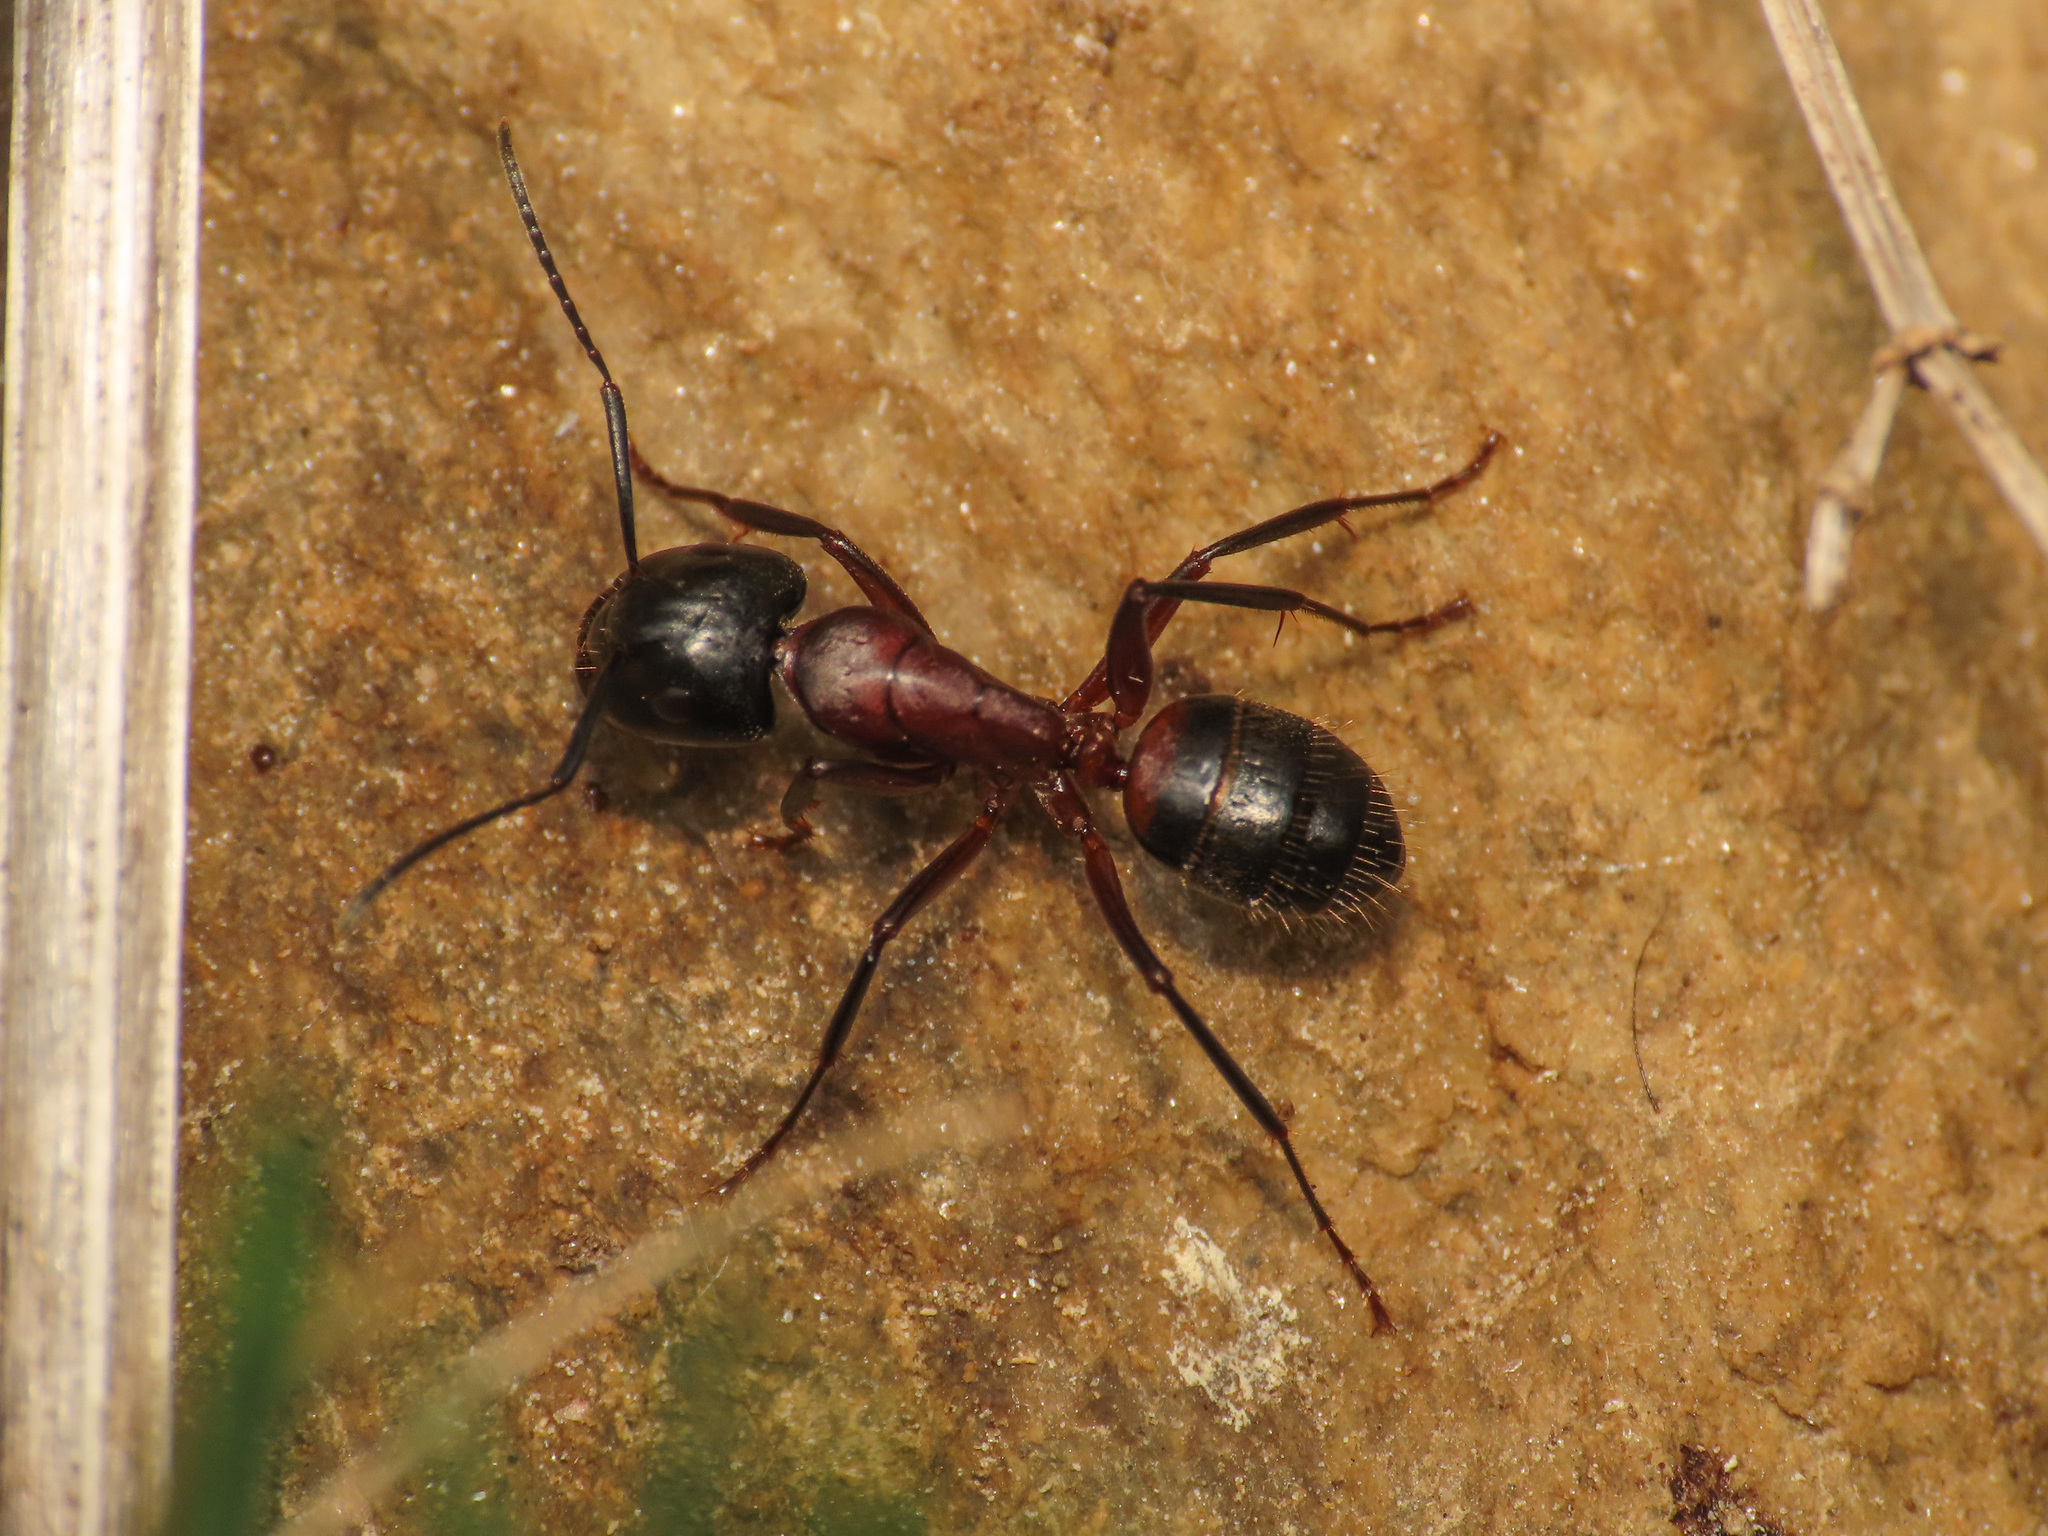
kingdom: Animalia
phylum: Arthropoda
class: Insecta
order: Hymenoptera
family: Formicidae
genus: Camponotus
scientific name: Camponotus ligniperdus
